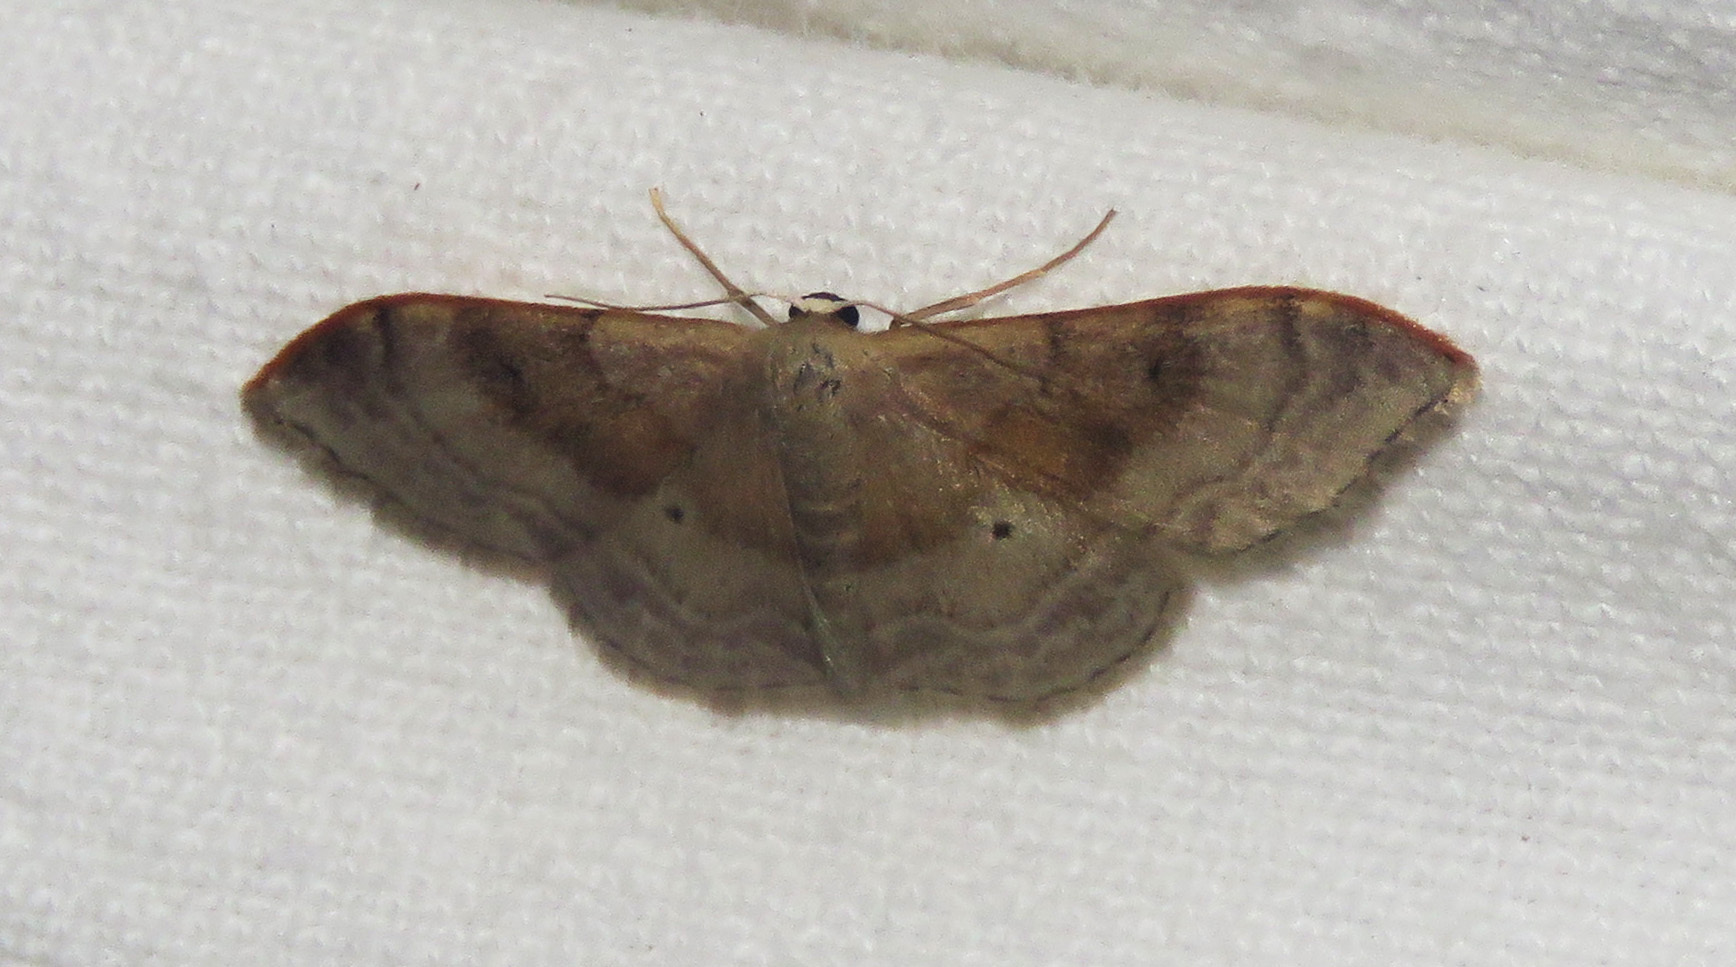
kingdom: Animalia
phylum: Arthropoda
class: Insecta
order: Lepidoptera
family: Geometridae
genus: Idaea
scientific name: Idaea degeneraria
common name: Portland ribbon wave
